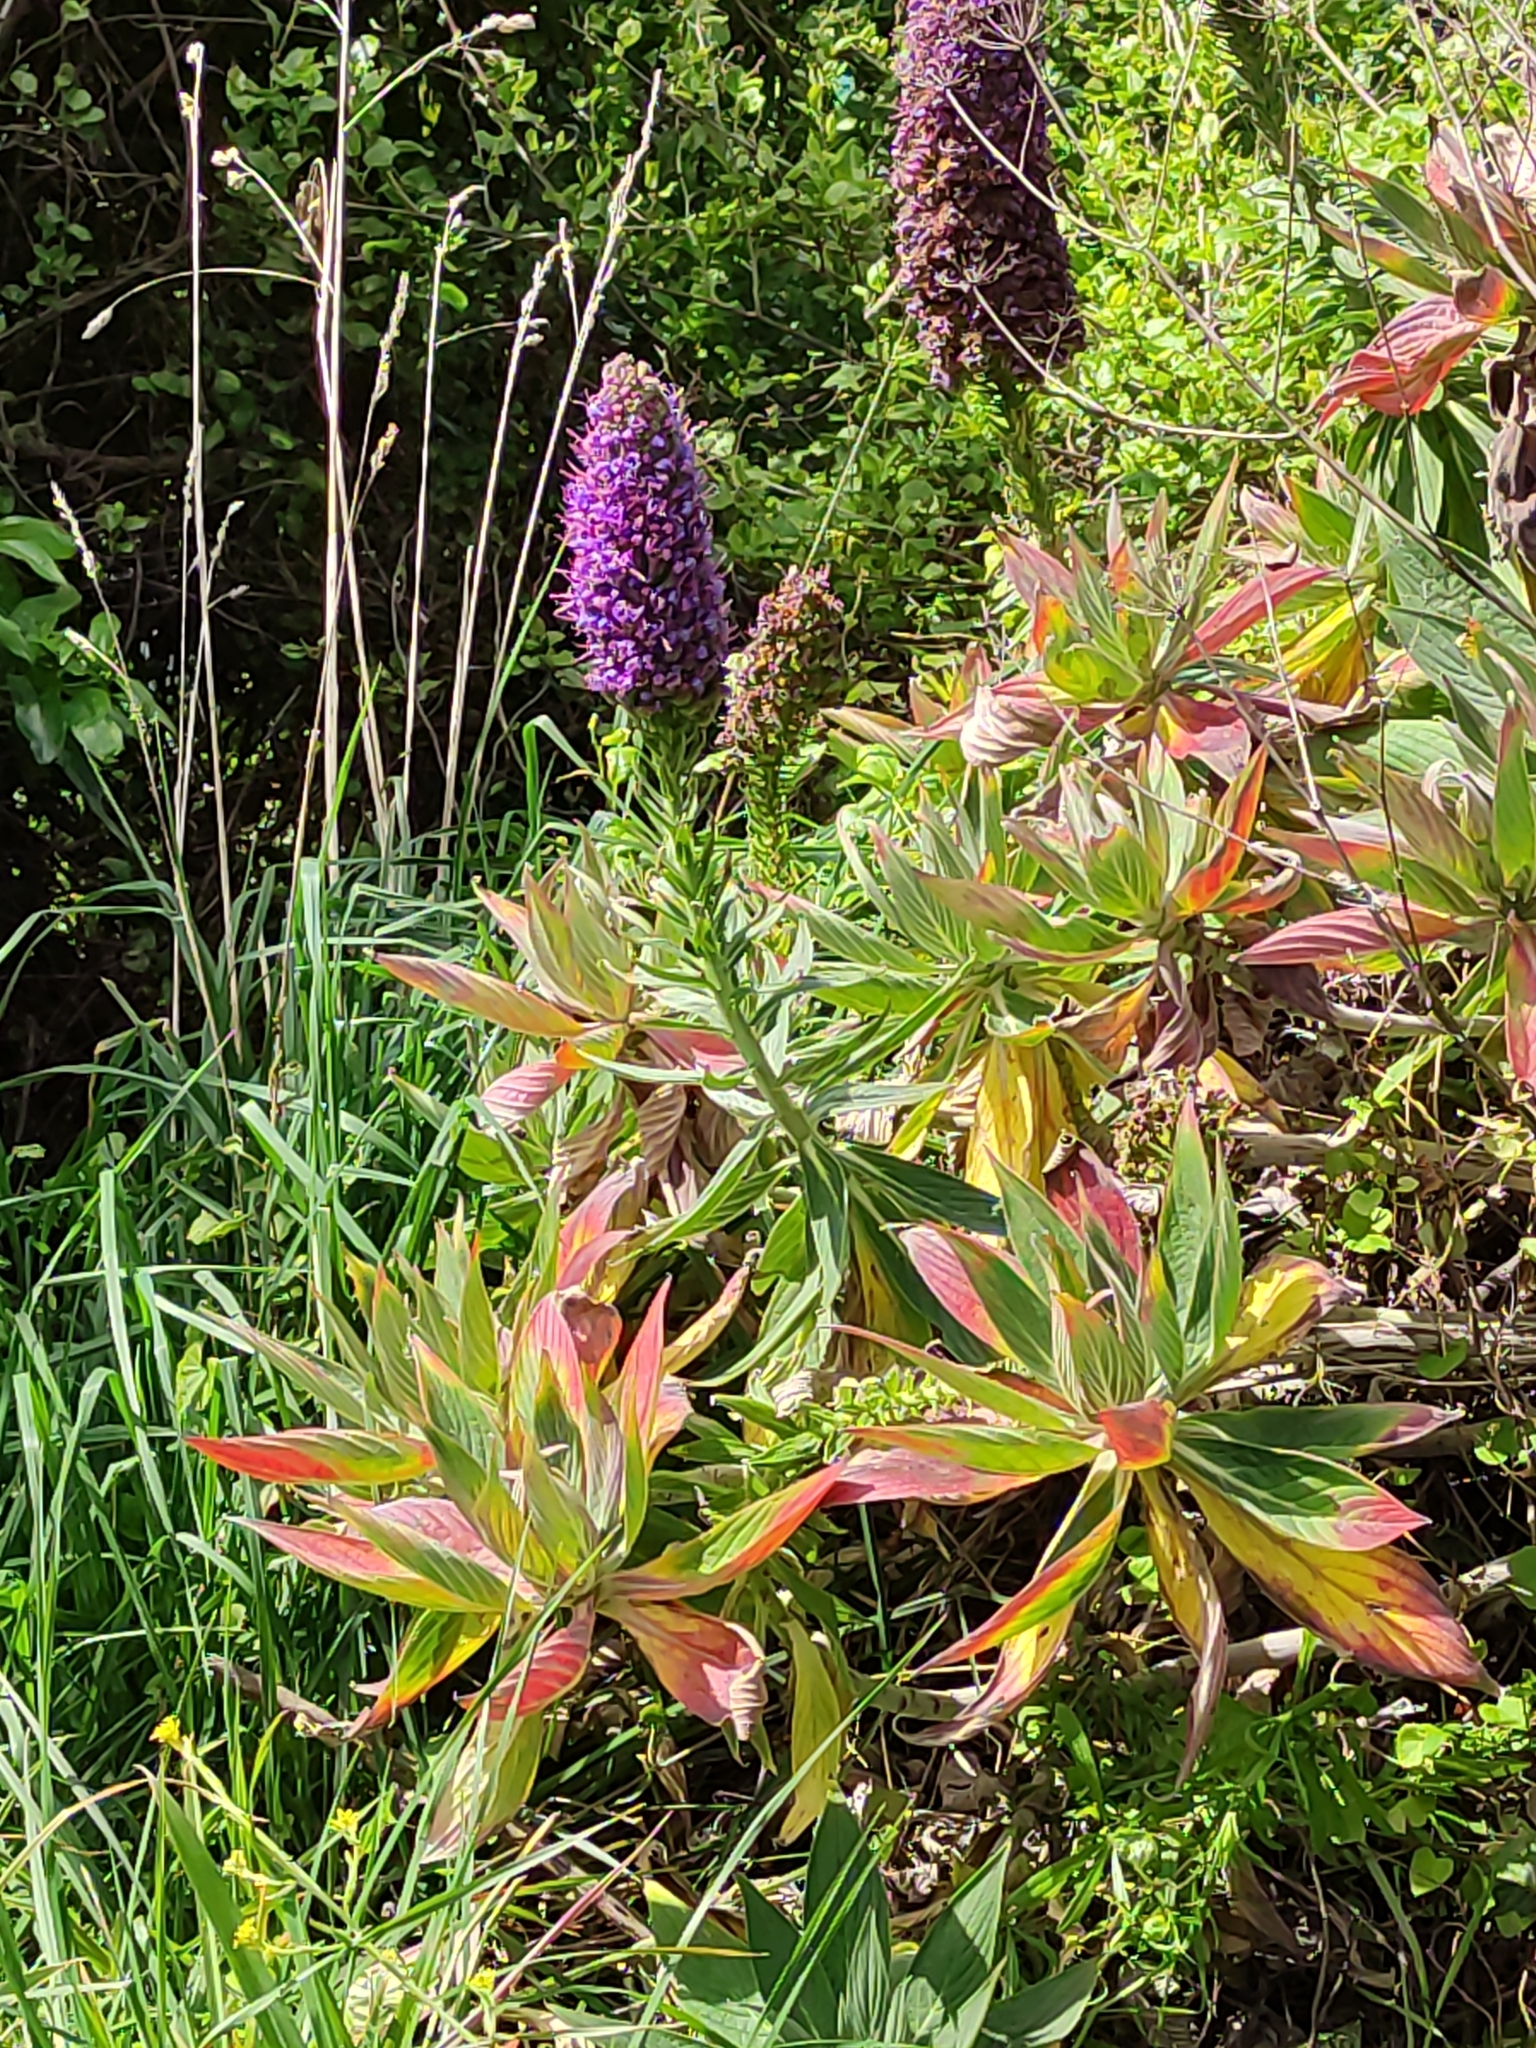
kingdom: Plantae
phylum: Tracheophyta
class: Magnoliopsida
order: Boraginales
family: Boraginaceae
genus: Echium
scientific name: Echium candicans
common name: Pride of madeira
